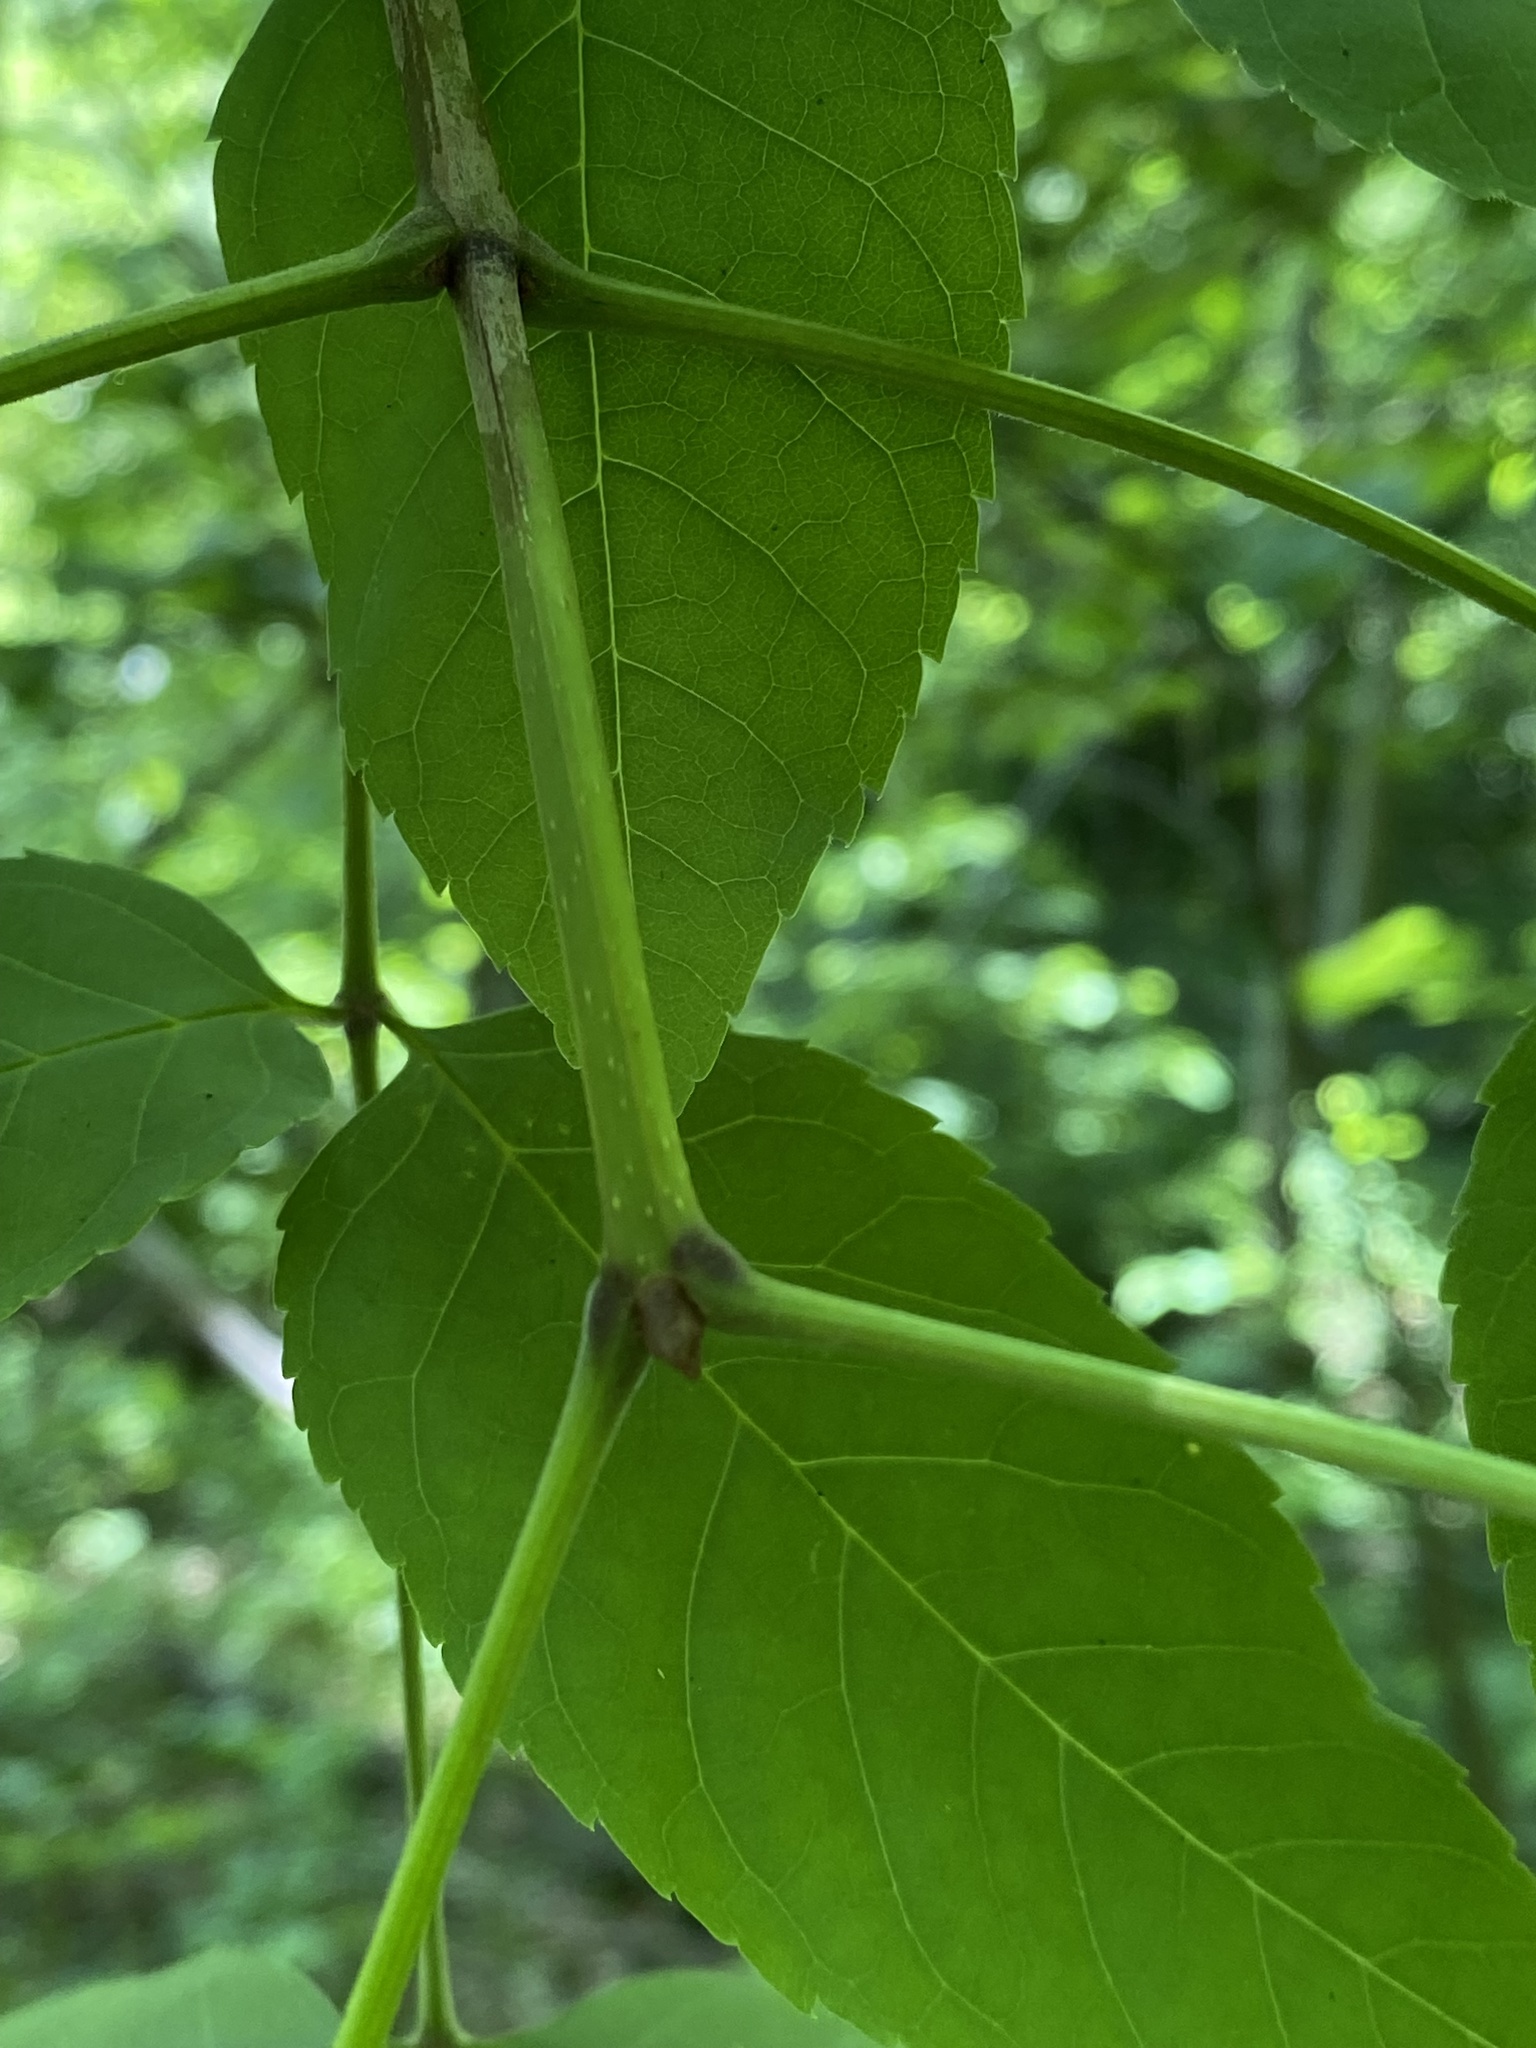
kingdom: Plantae
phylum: Tracheophyta
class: Magnoliopsida
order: Lamiales
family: Oleaceae
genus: Fraxinus
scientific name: Fraxinus quadrangulata
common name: Blue ash
